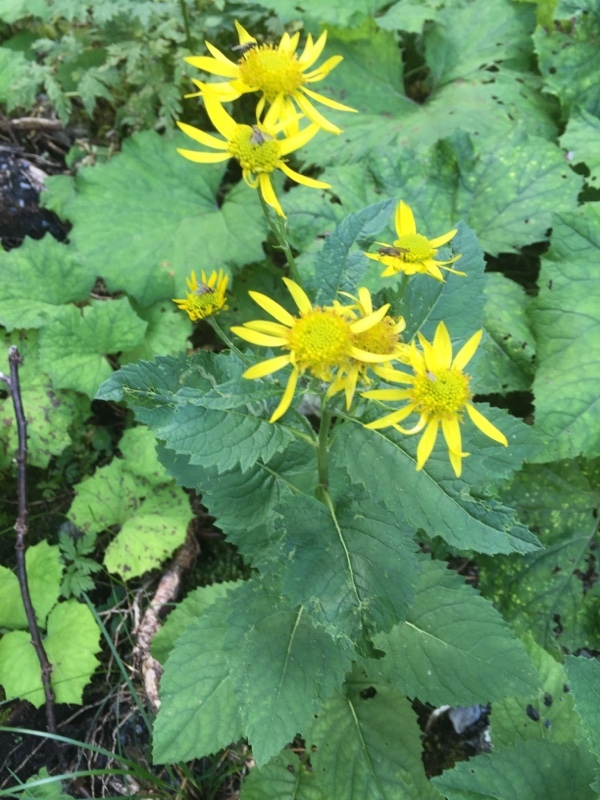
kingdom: Plantae
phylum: Tracheophyta
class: Magnoliopsida
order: Asterales
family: Asteraceae
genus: Jacobaea
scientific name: Jacobaea alpina
